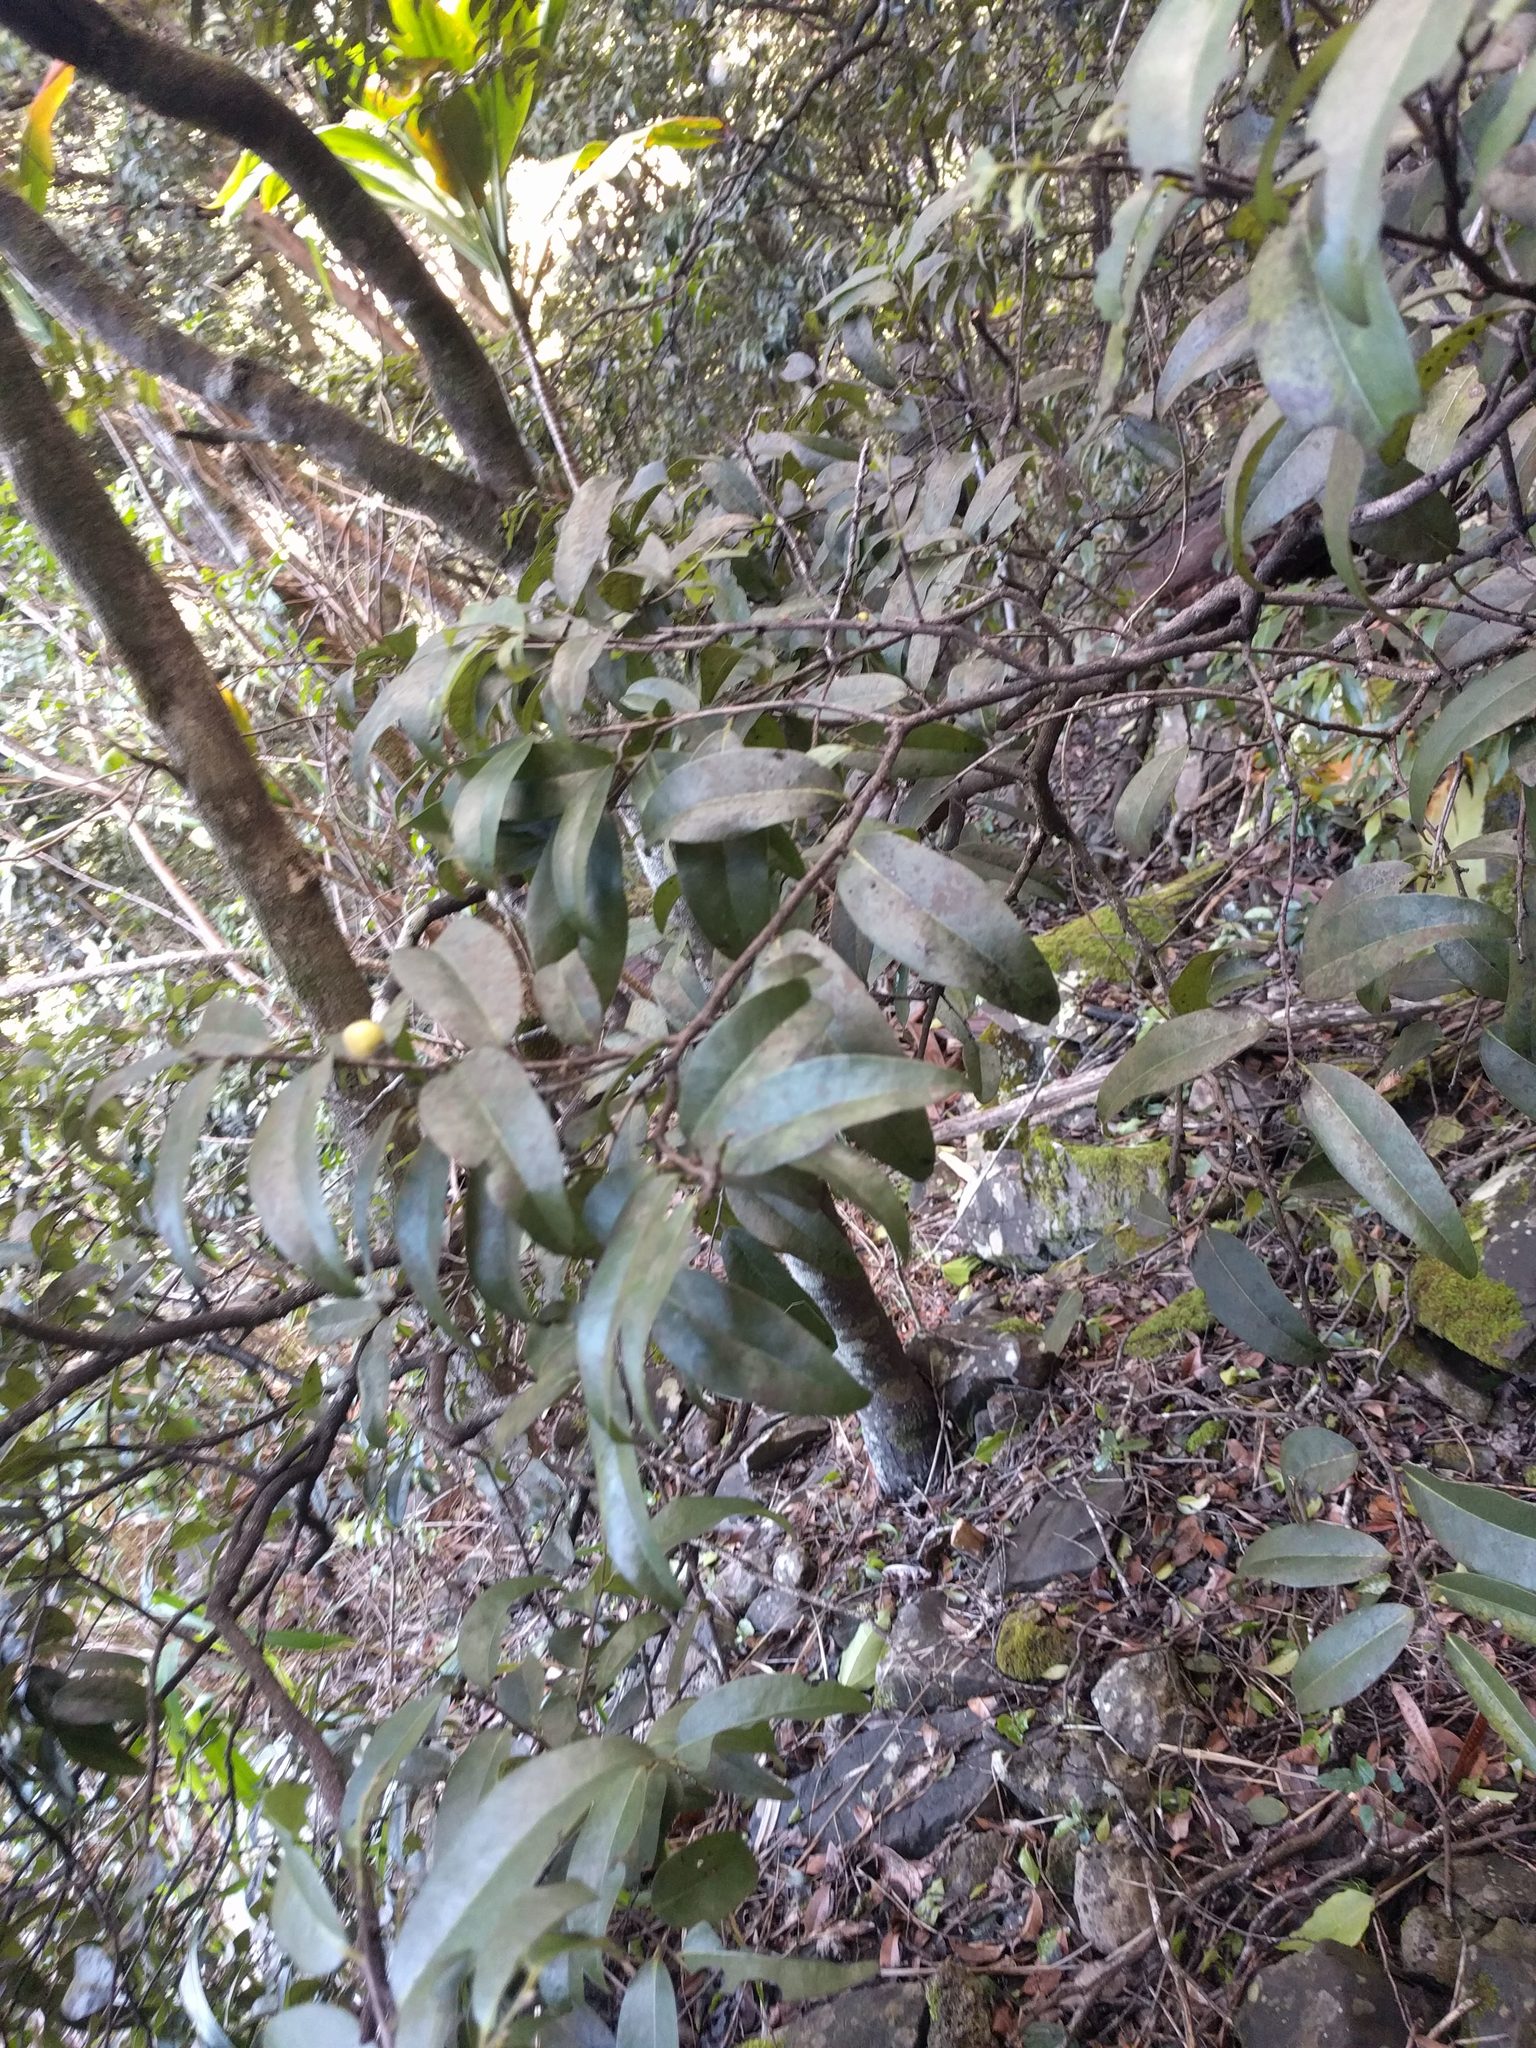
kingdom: Plantae
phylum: Tracheophyta
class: Magnoliopsida
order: Ericales
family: Ebenaceae
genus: Diospyros
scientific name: Diospyros sandwicensis
